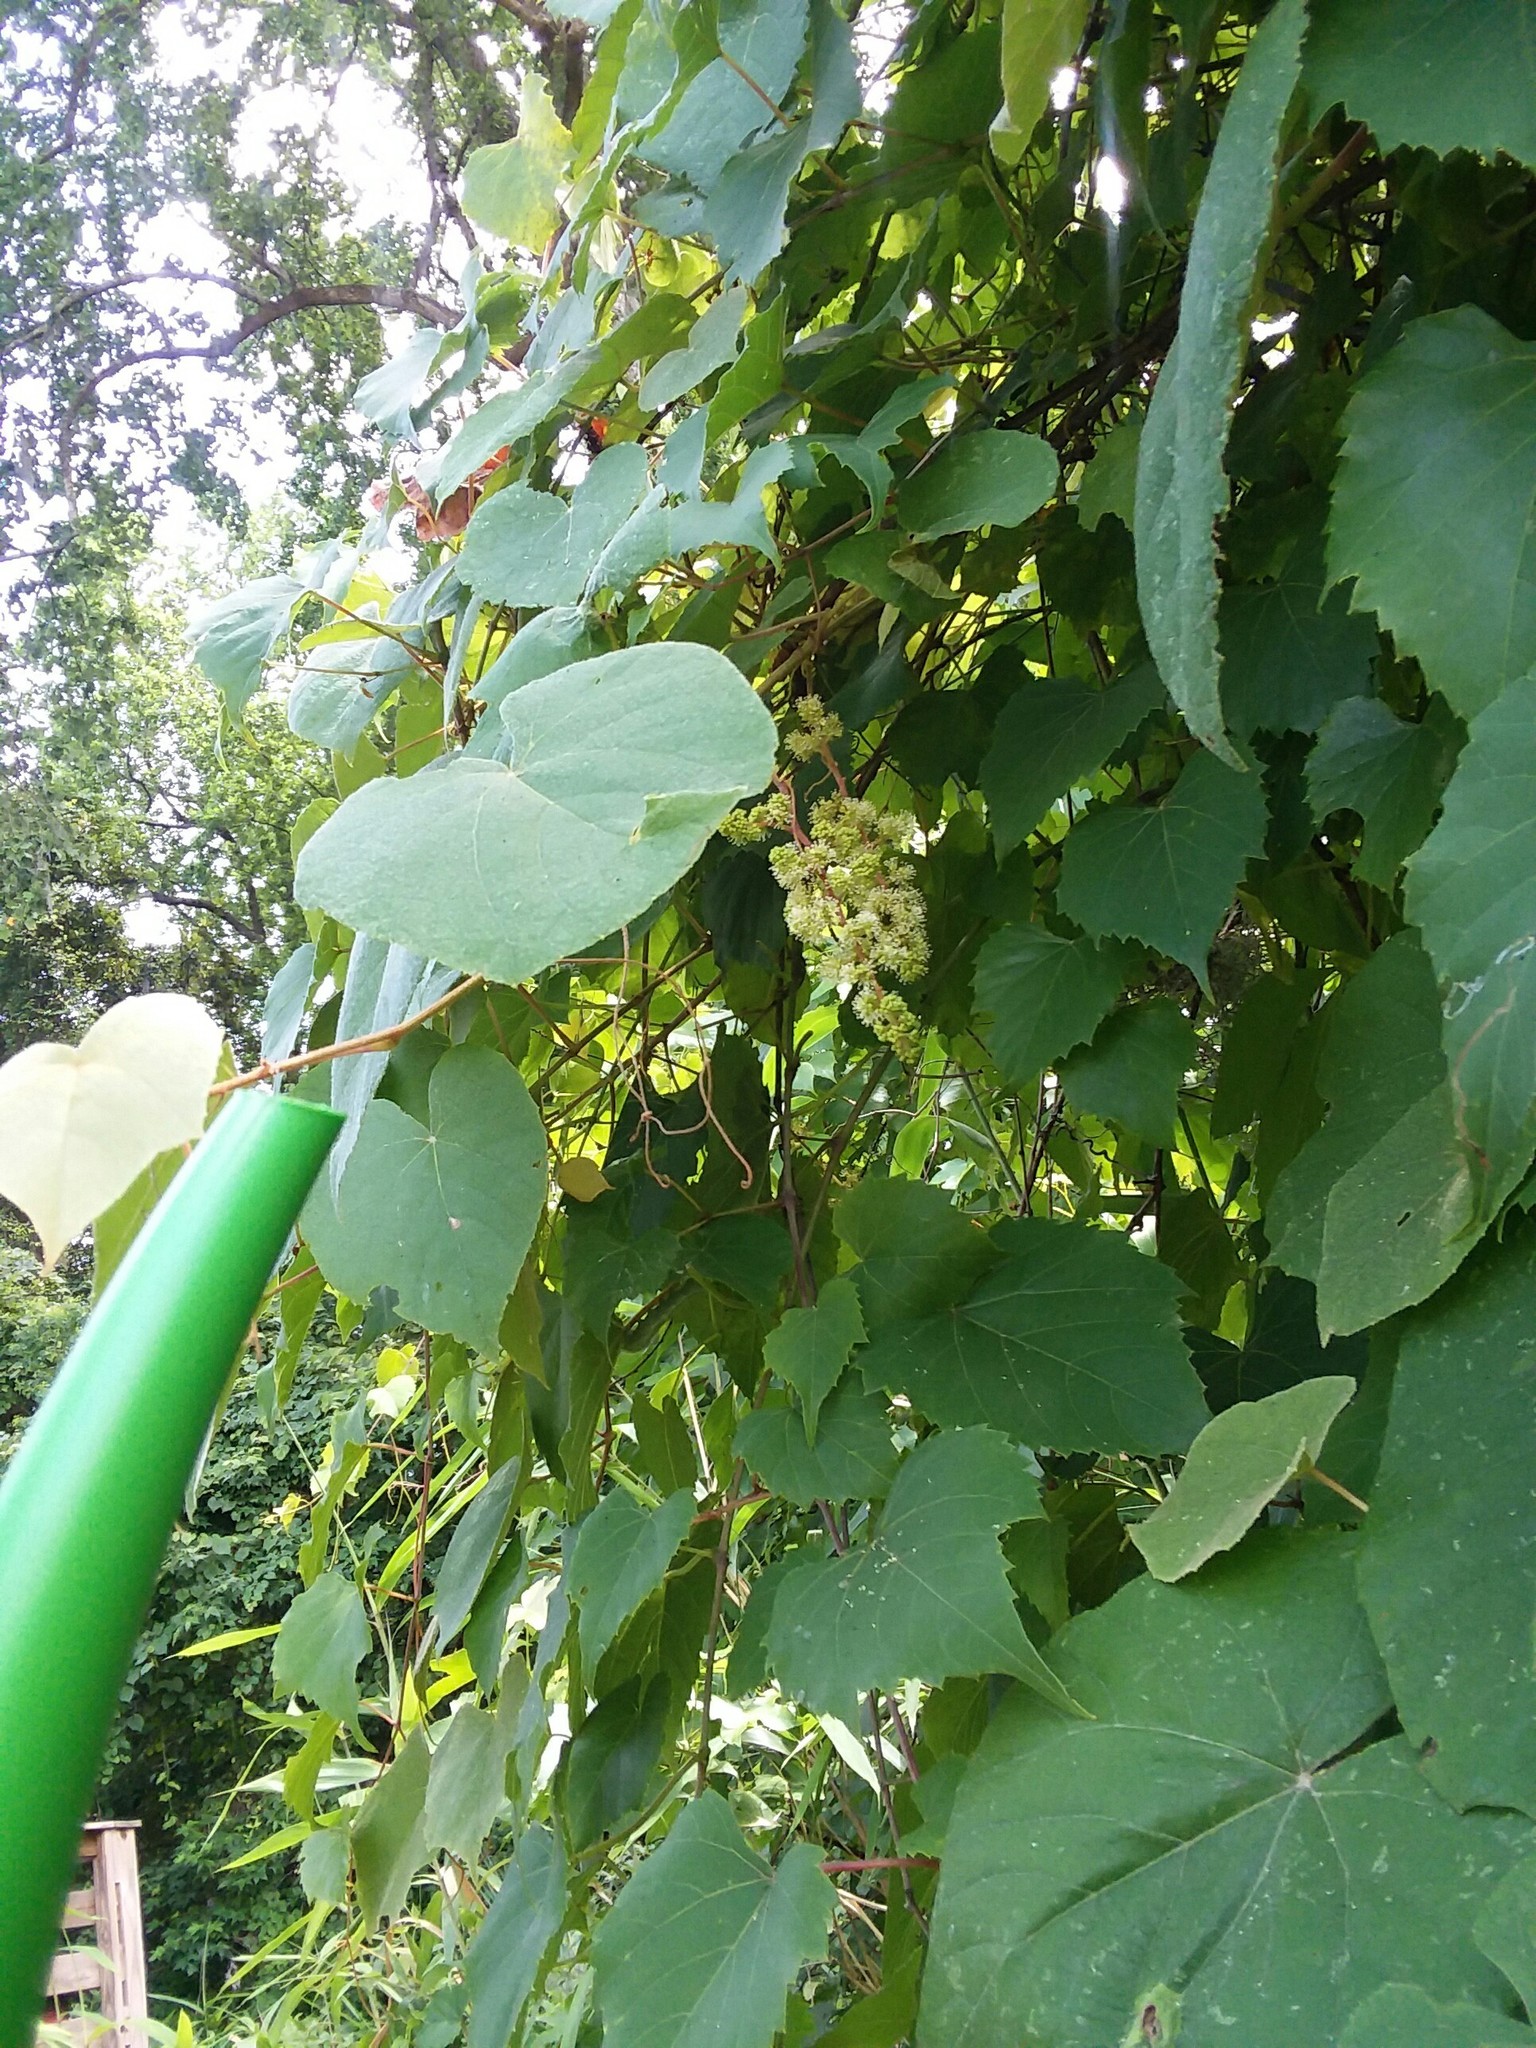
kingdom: Plantae
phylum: Tracheophyta
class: Magnoliopsida
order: Vitales
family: Vitaceae
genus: Vitis
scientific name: Vitis cinerea
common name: Ashy grape
